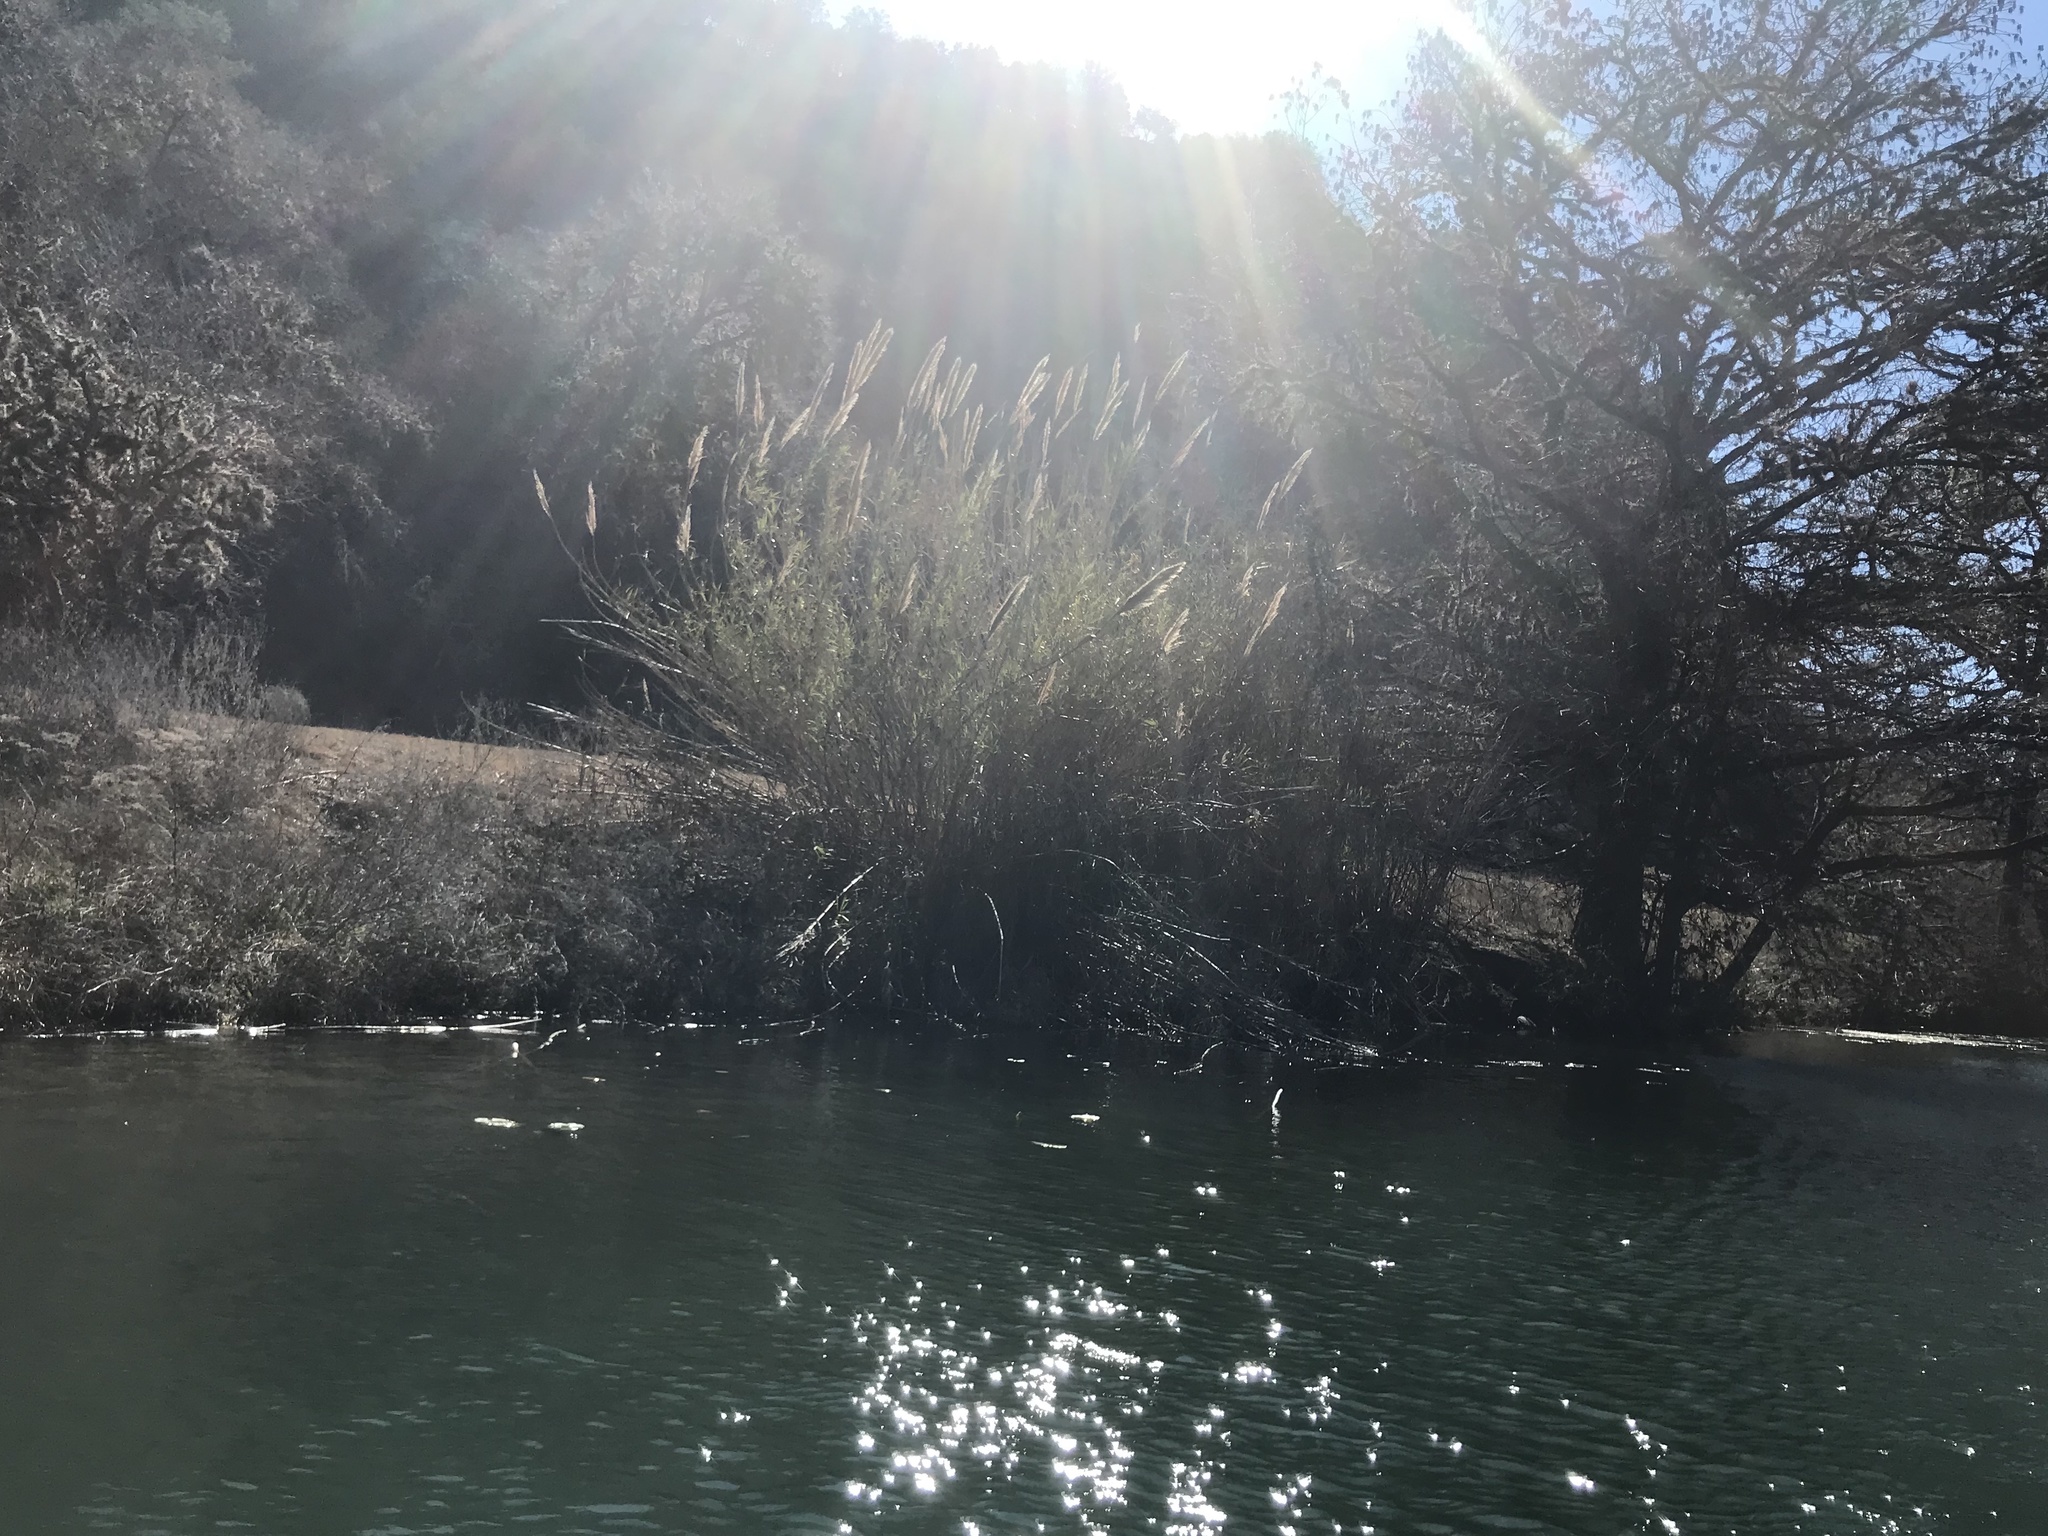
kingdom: Plantae
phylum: Tracheophyta
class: Liliopsida
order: Poales
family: Poaceae
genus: Arundo
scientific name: Arundo donax
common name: Giant reed
